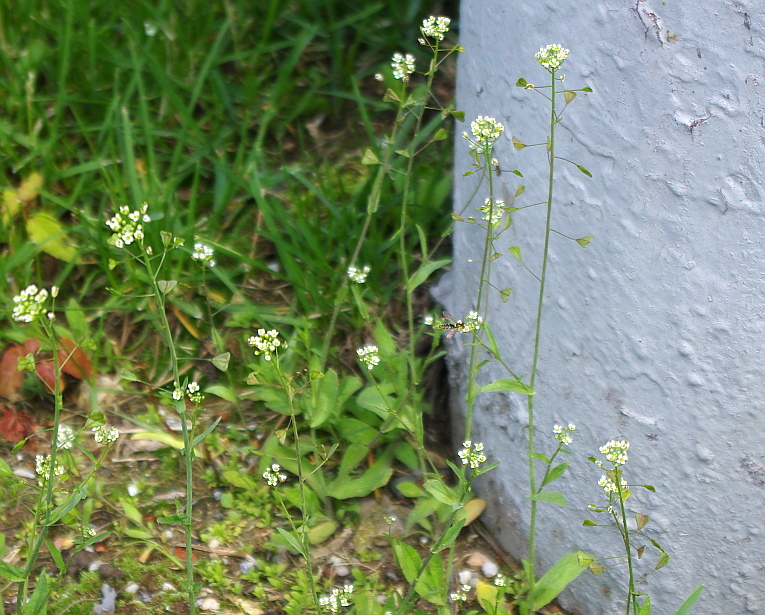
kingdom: Plantae
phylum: Tracheophyta
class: Magnoliopsida
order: Brassicales
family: Brassicaceae
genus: Capsella
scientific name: Capsella bursa-pastoris
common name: Shepherd's purse
